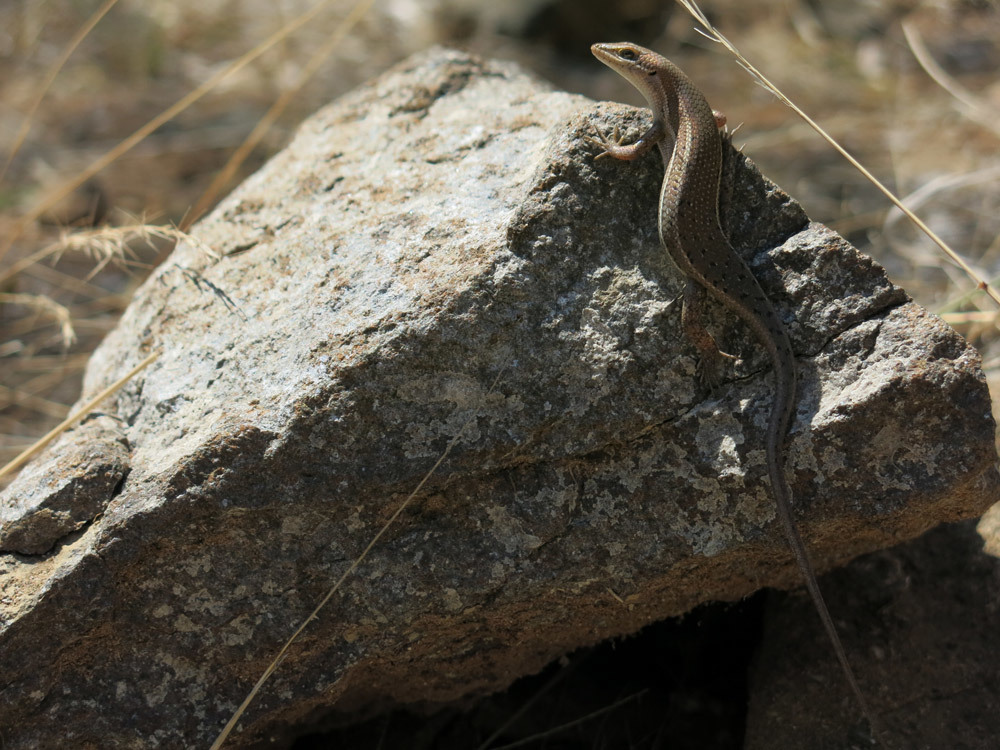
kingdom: Animalia
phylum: Chordata
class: Squamata
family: Scincidae
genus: Trachylepis
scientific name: Trachylepis varia
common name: Eastern variable skink
